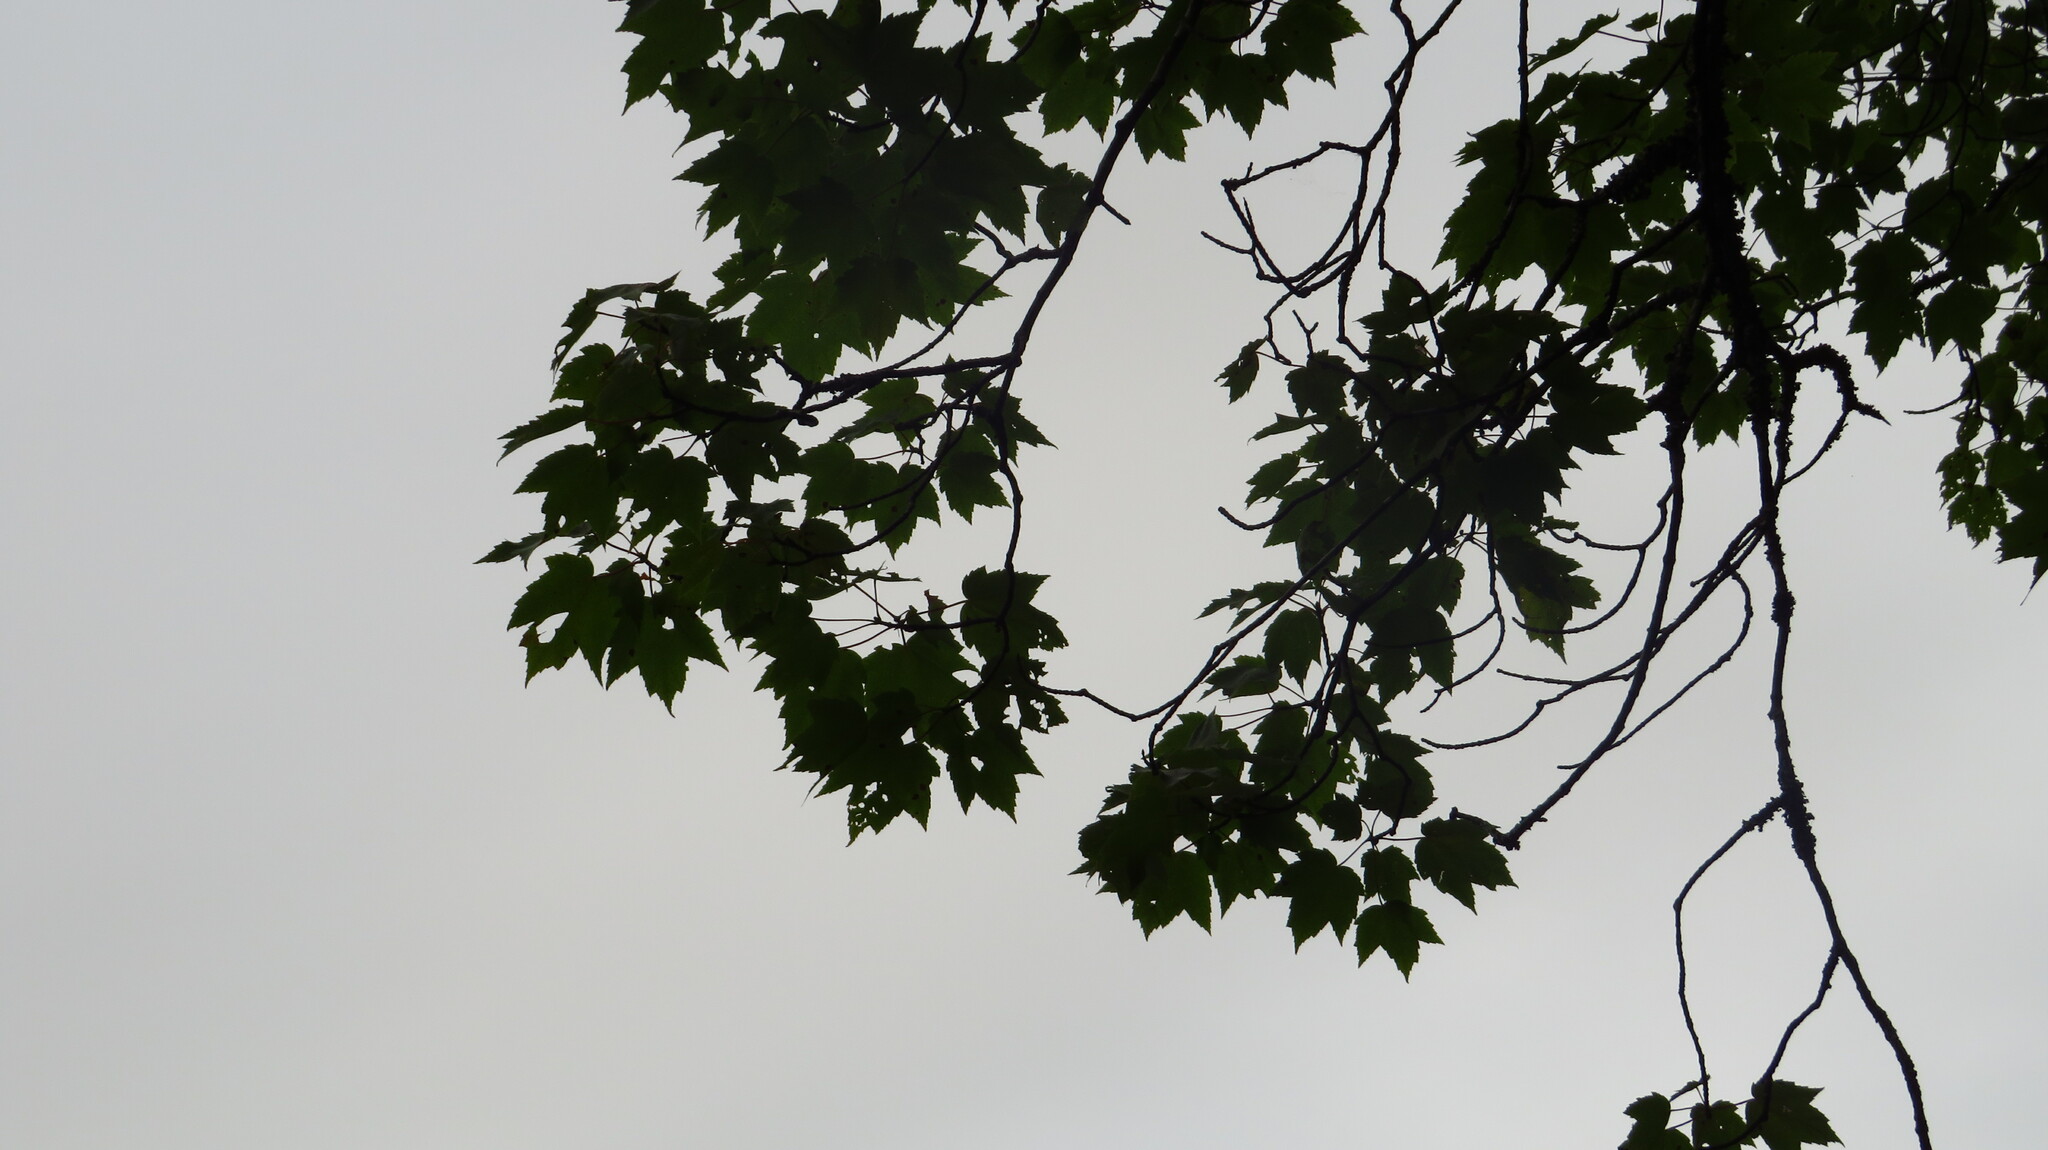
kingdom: Plantae
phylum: Tracheophyta
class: Magnoliopsida
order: Sapindales
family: Sapindaceae
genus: Acer
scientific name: Acer rubrum
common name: Red maple
